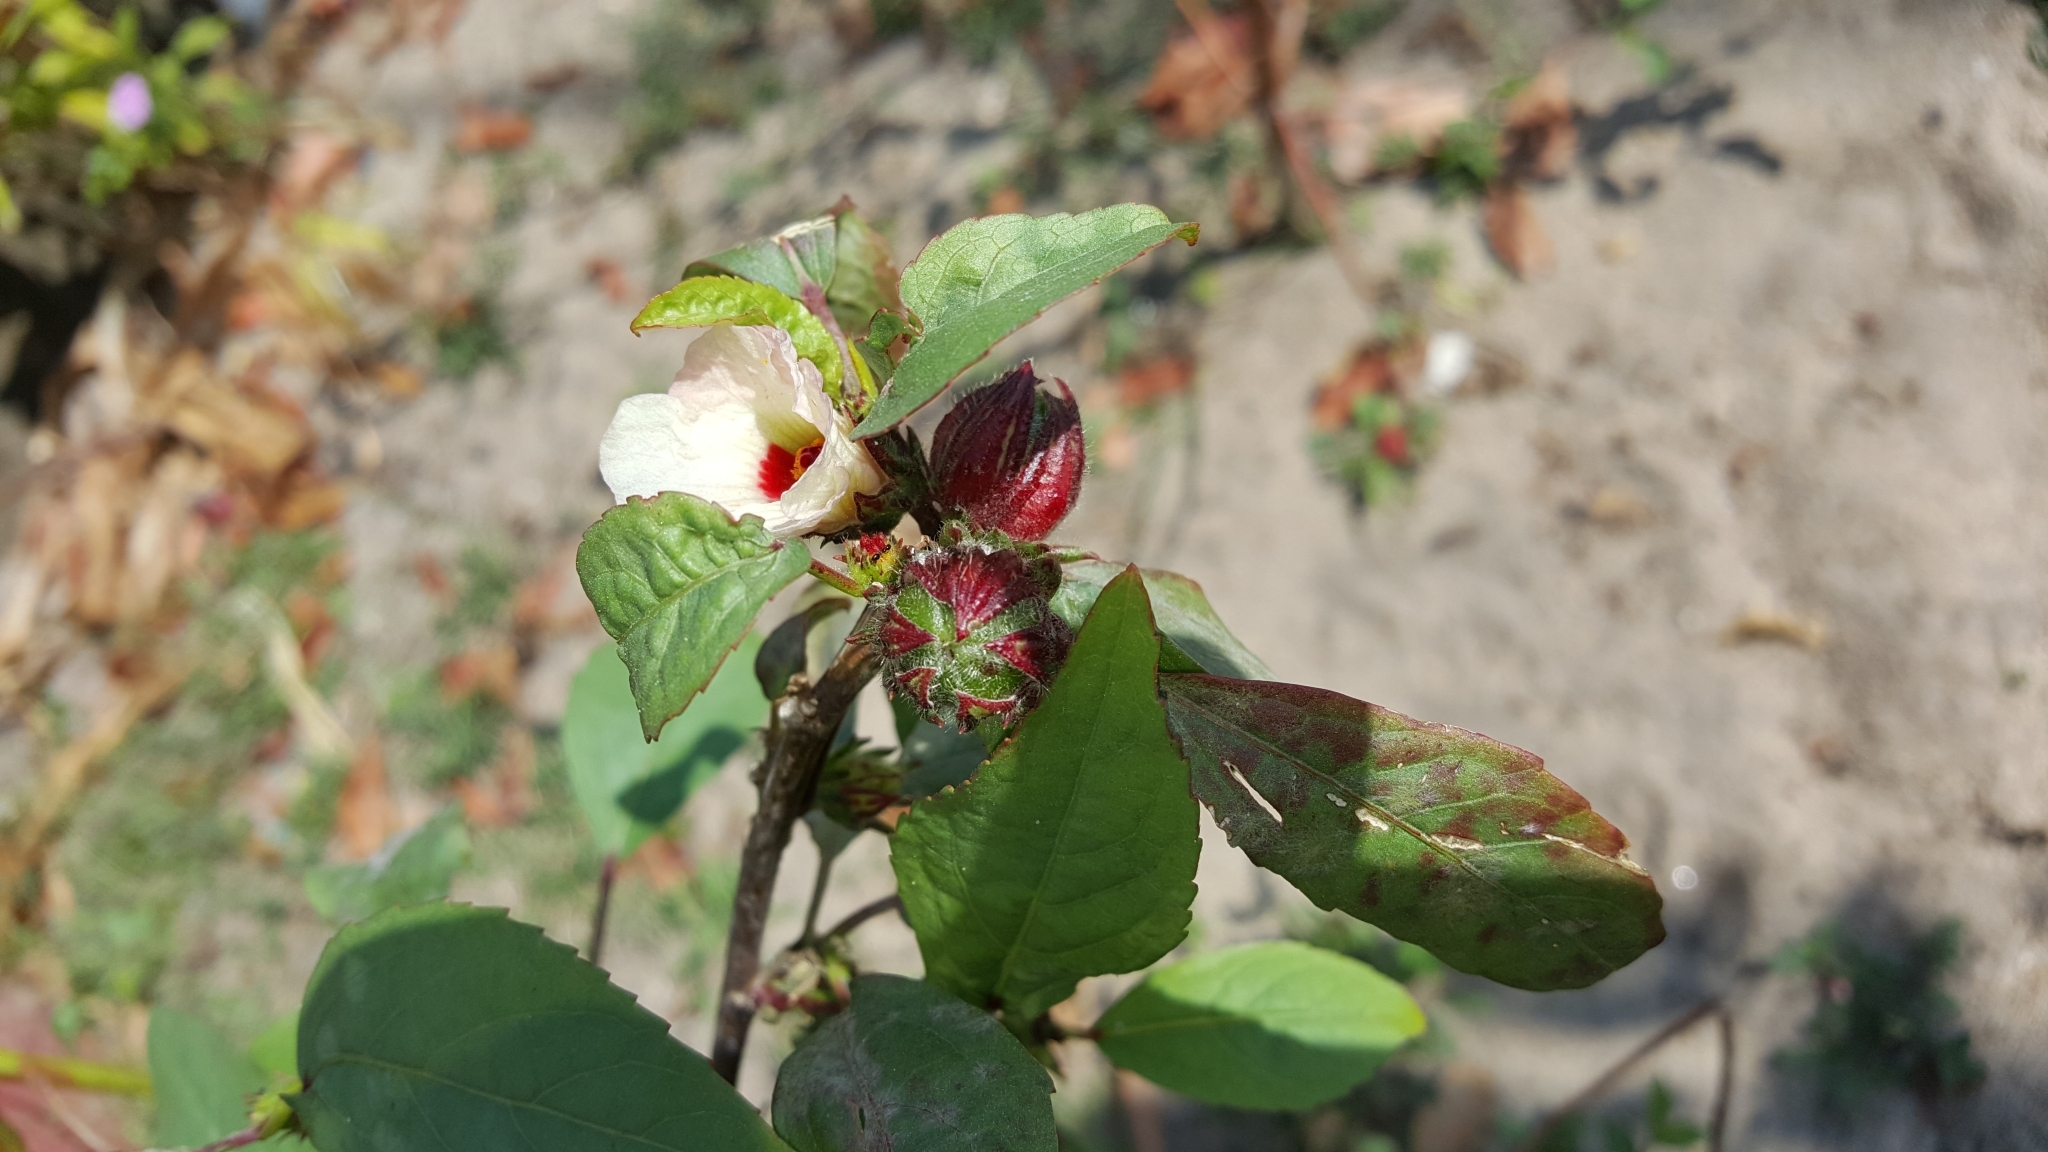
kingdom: Plantae
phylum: Tracheophyta
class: Magnoliopsida
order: Malvales
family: Malvaceae
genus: Hibiscus
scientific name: Hibiscus sabdariffa
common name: Roselle
